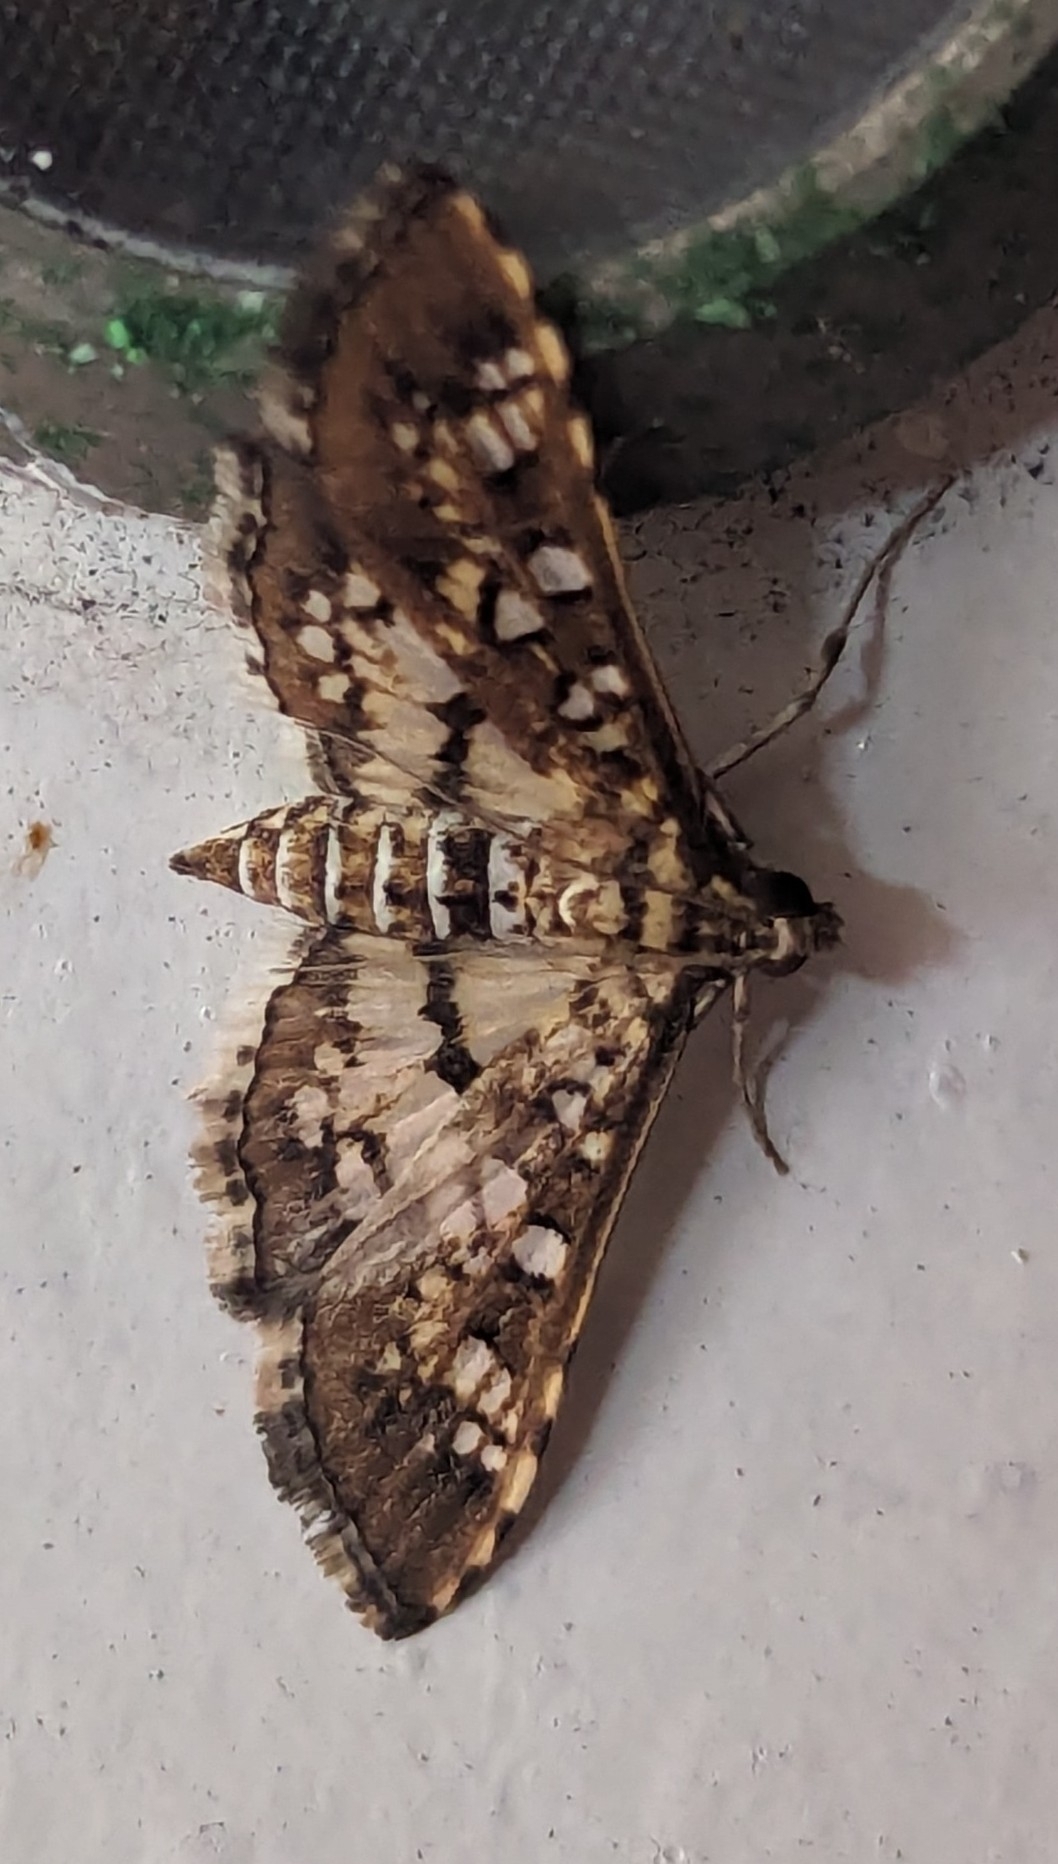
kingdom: Animalia
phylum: Arthropoda
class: Insecta
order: Lepidoptera
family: Crambidae
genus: Samea
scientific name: Samea ecclesialis
